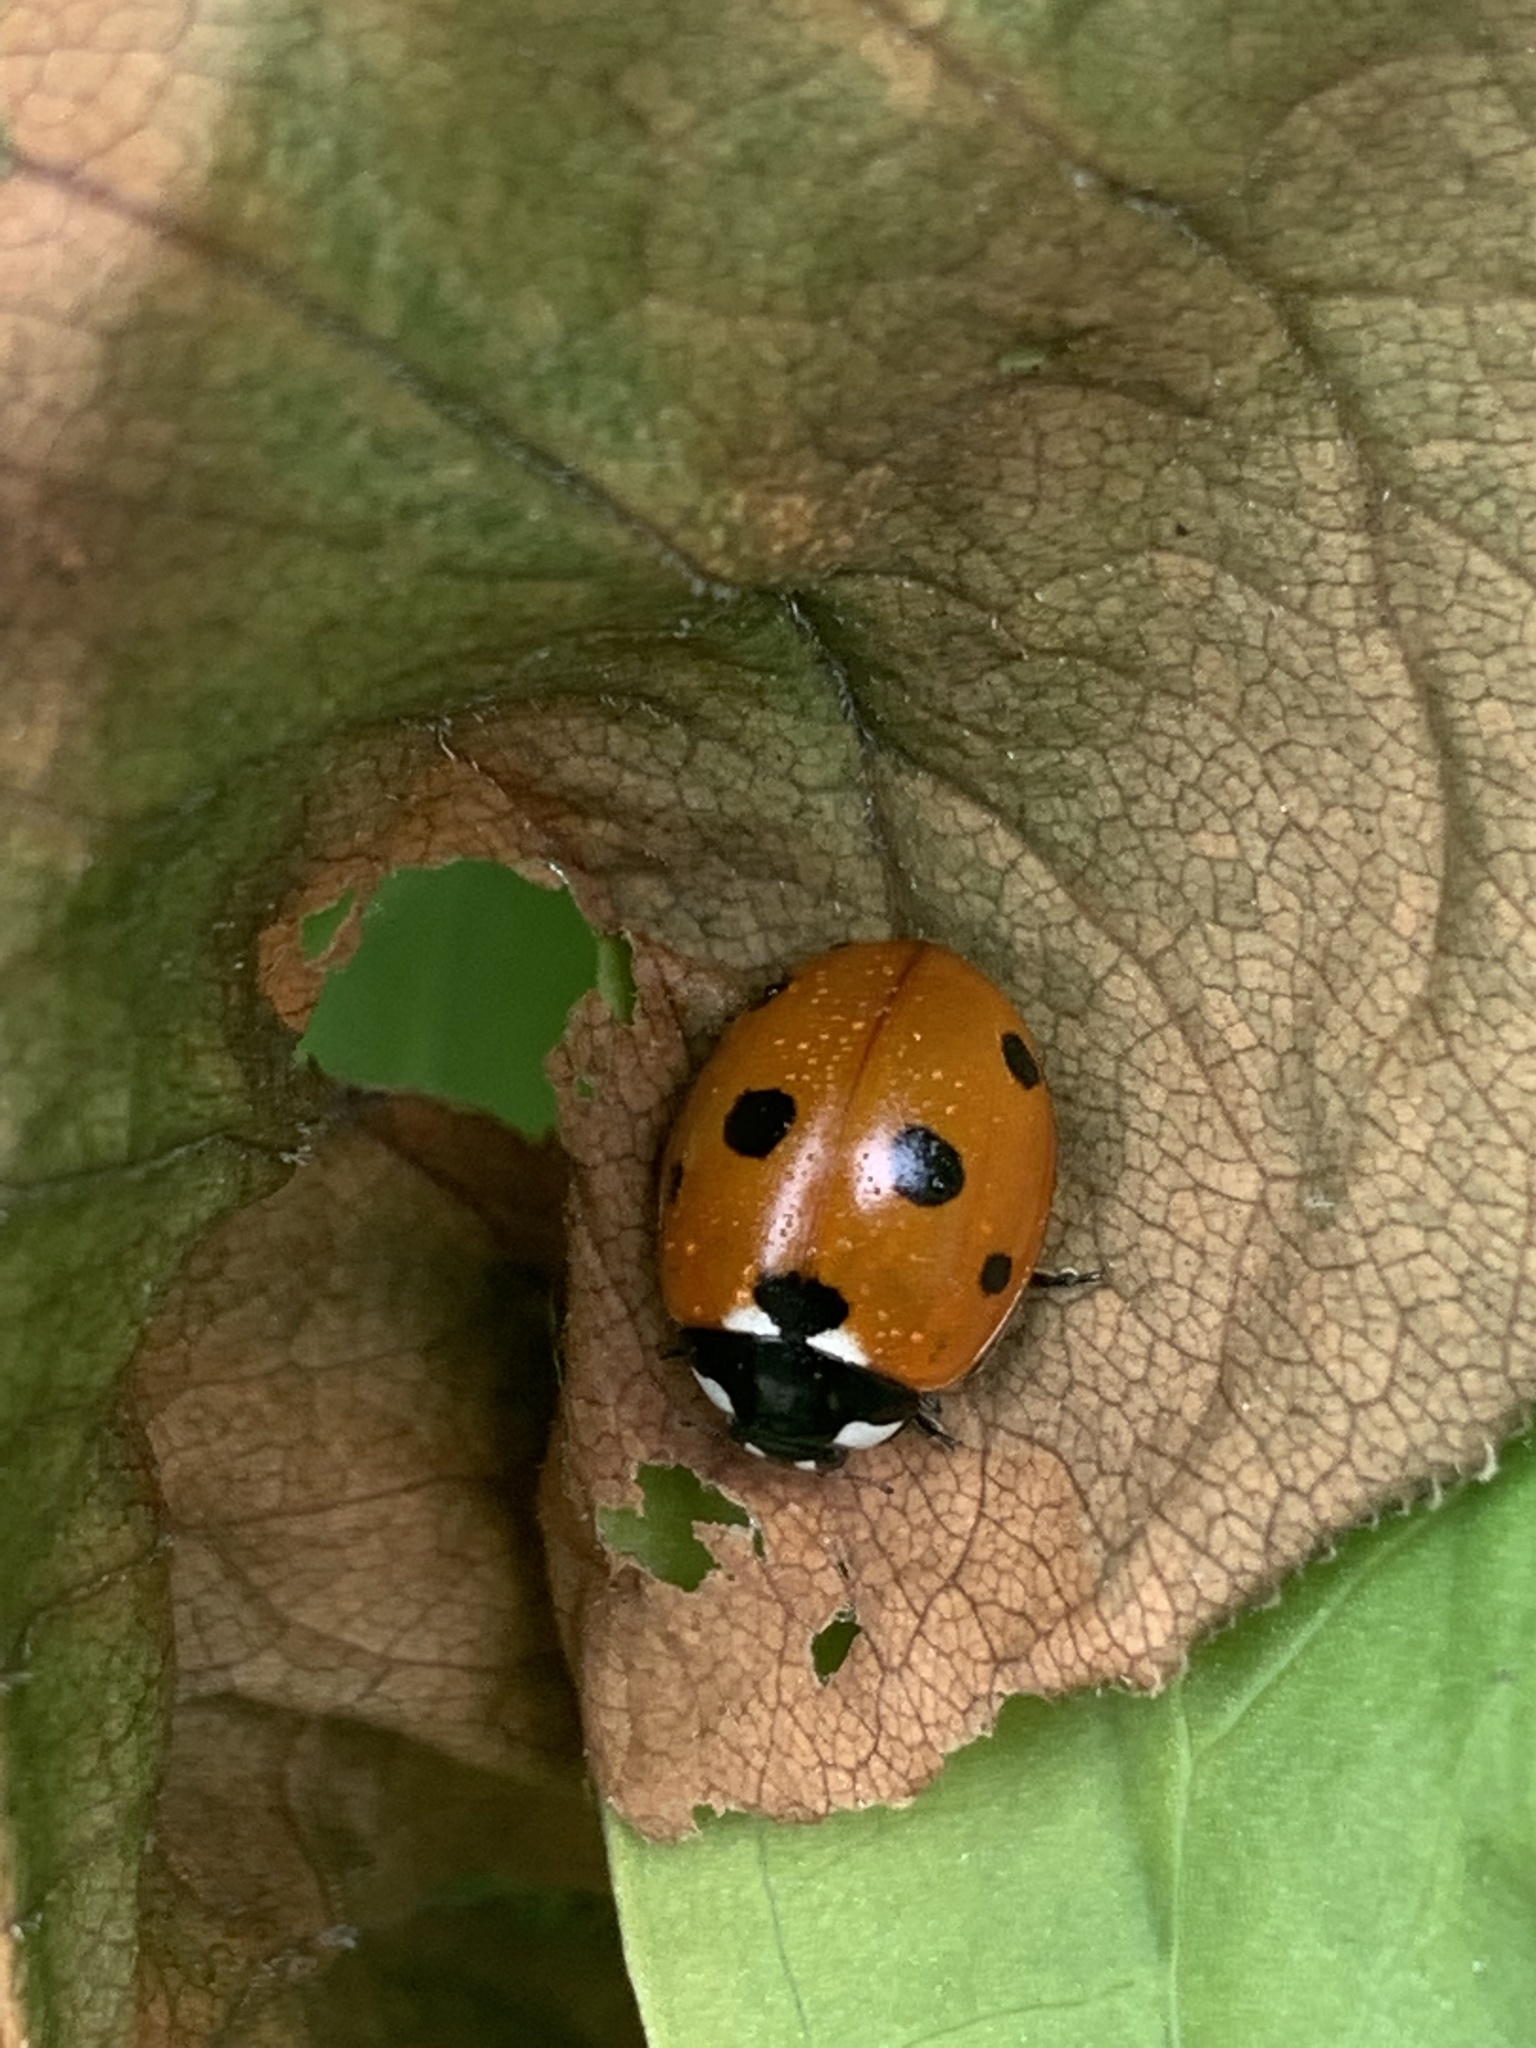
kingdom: Animalia
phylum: Arthropoda
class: Insecta
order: Coleoptera
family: Coccinellidae
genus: Coccinella
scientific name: Coccinella septempunctata
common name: Sevenspotted lady beetle
